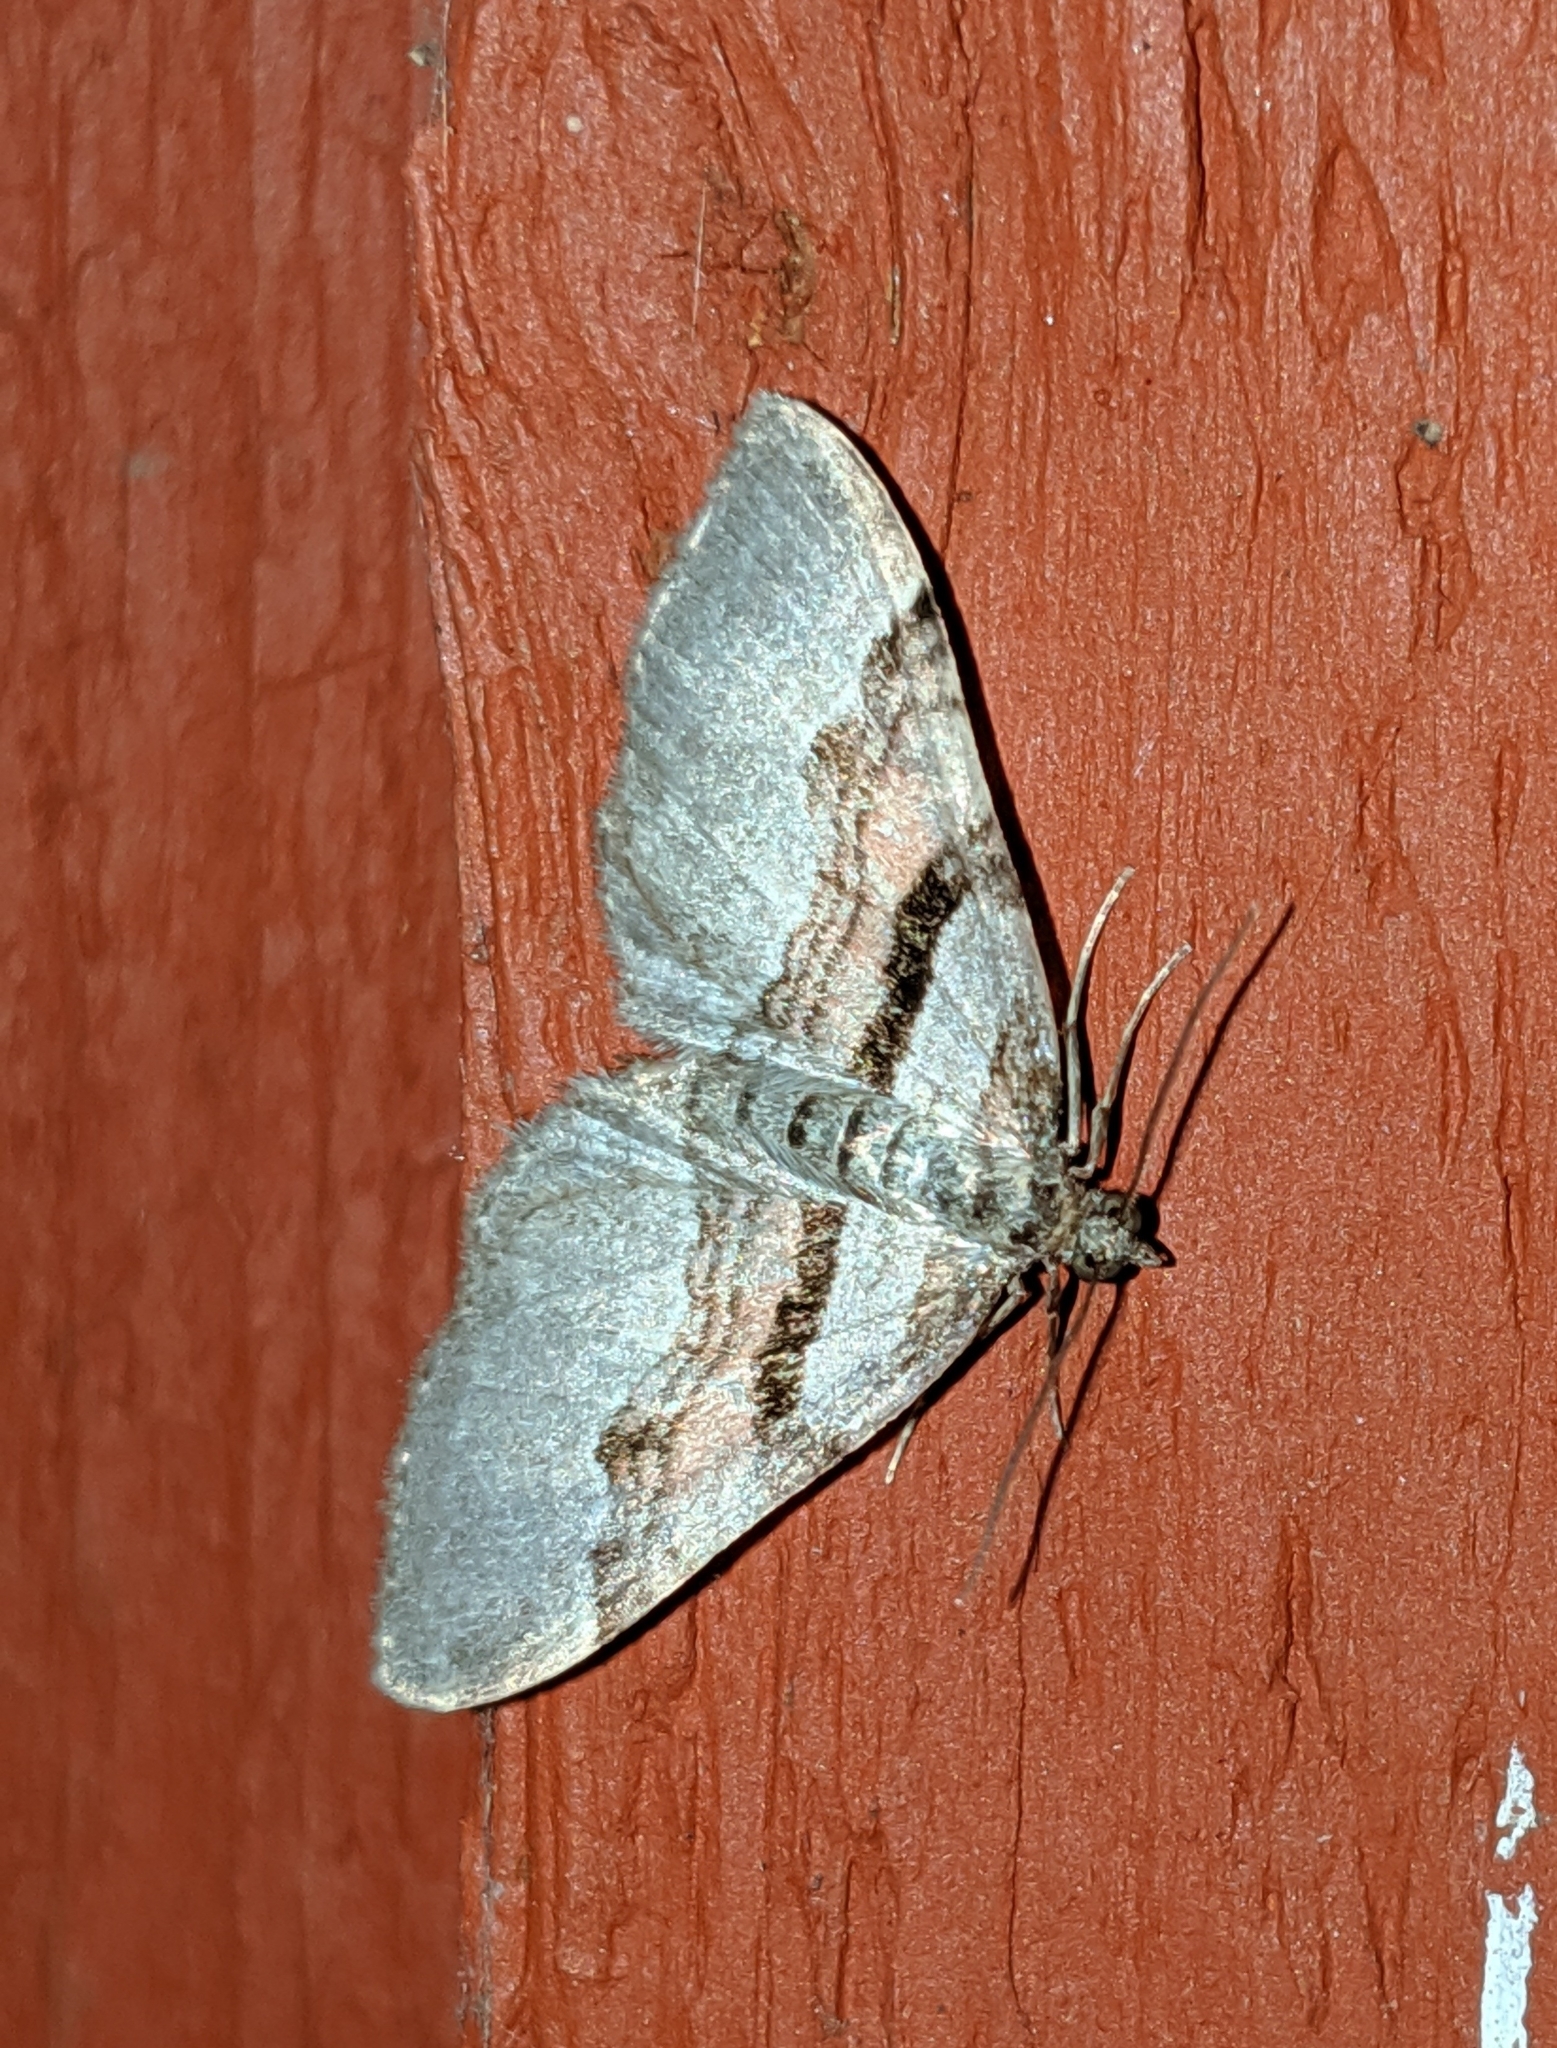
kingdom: Animalia
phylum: Arthropoda
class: Insecta
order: Lepidoptera
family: Geometridae
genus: Xanthorhoe
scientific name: Xanthorhoe labradorensis
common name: Labrador carpet
